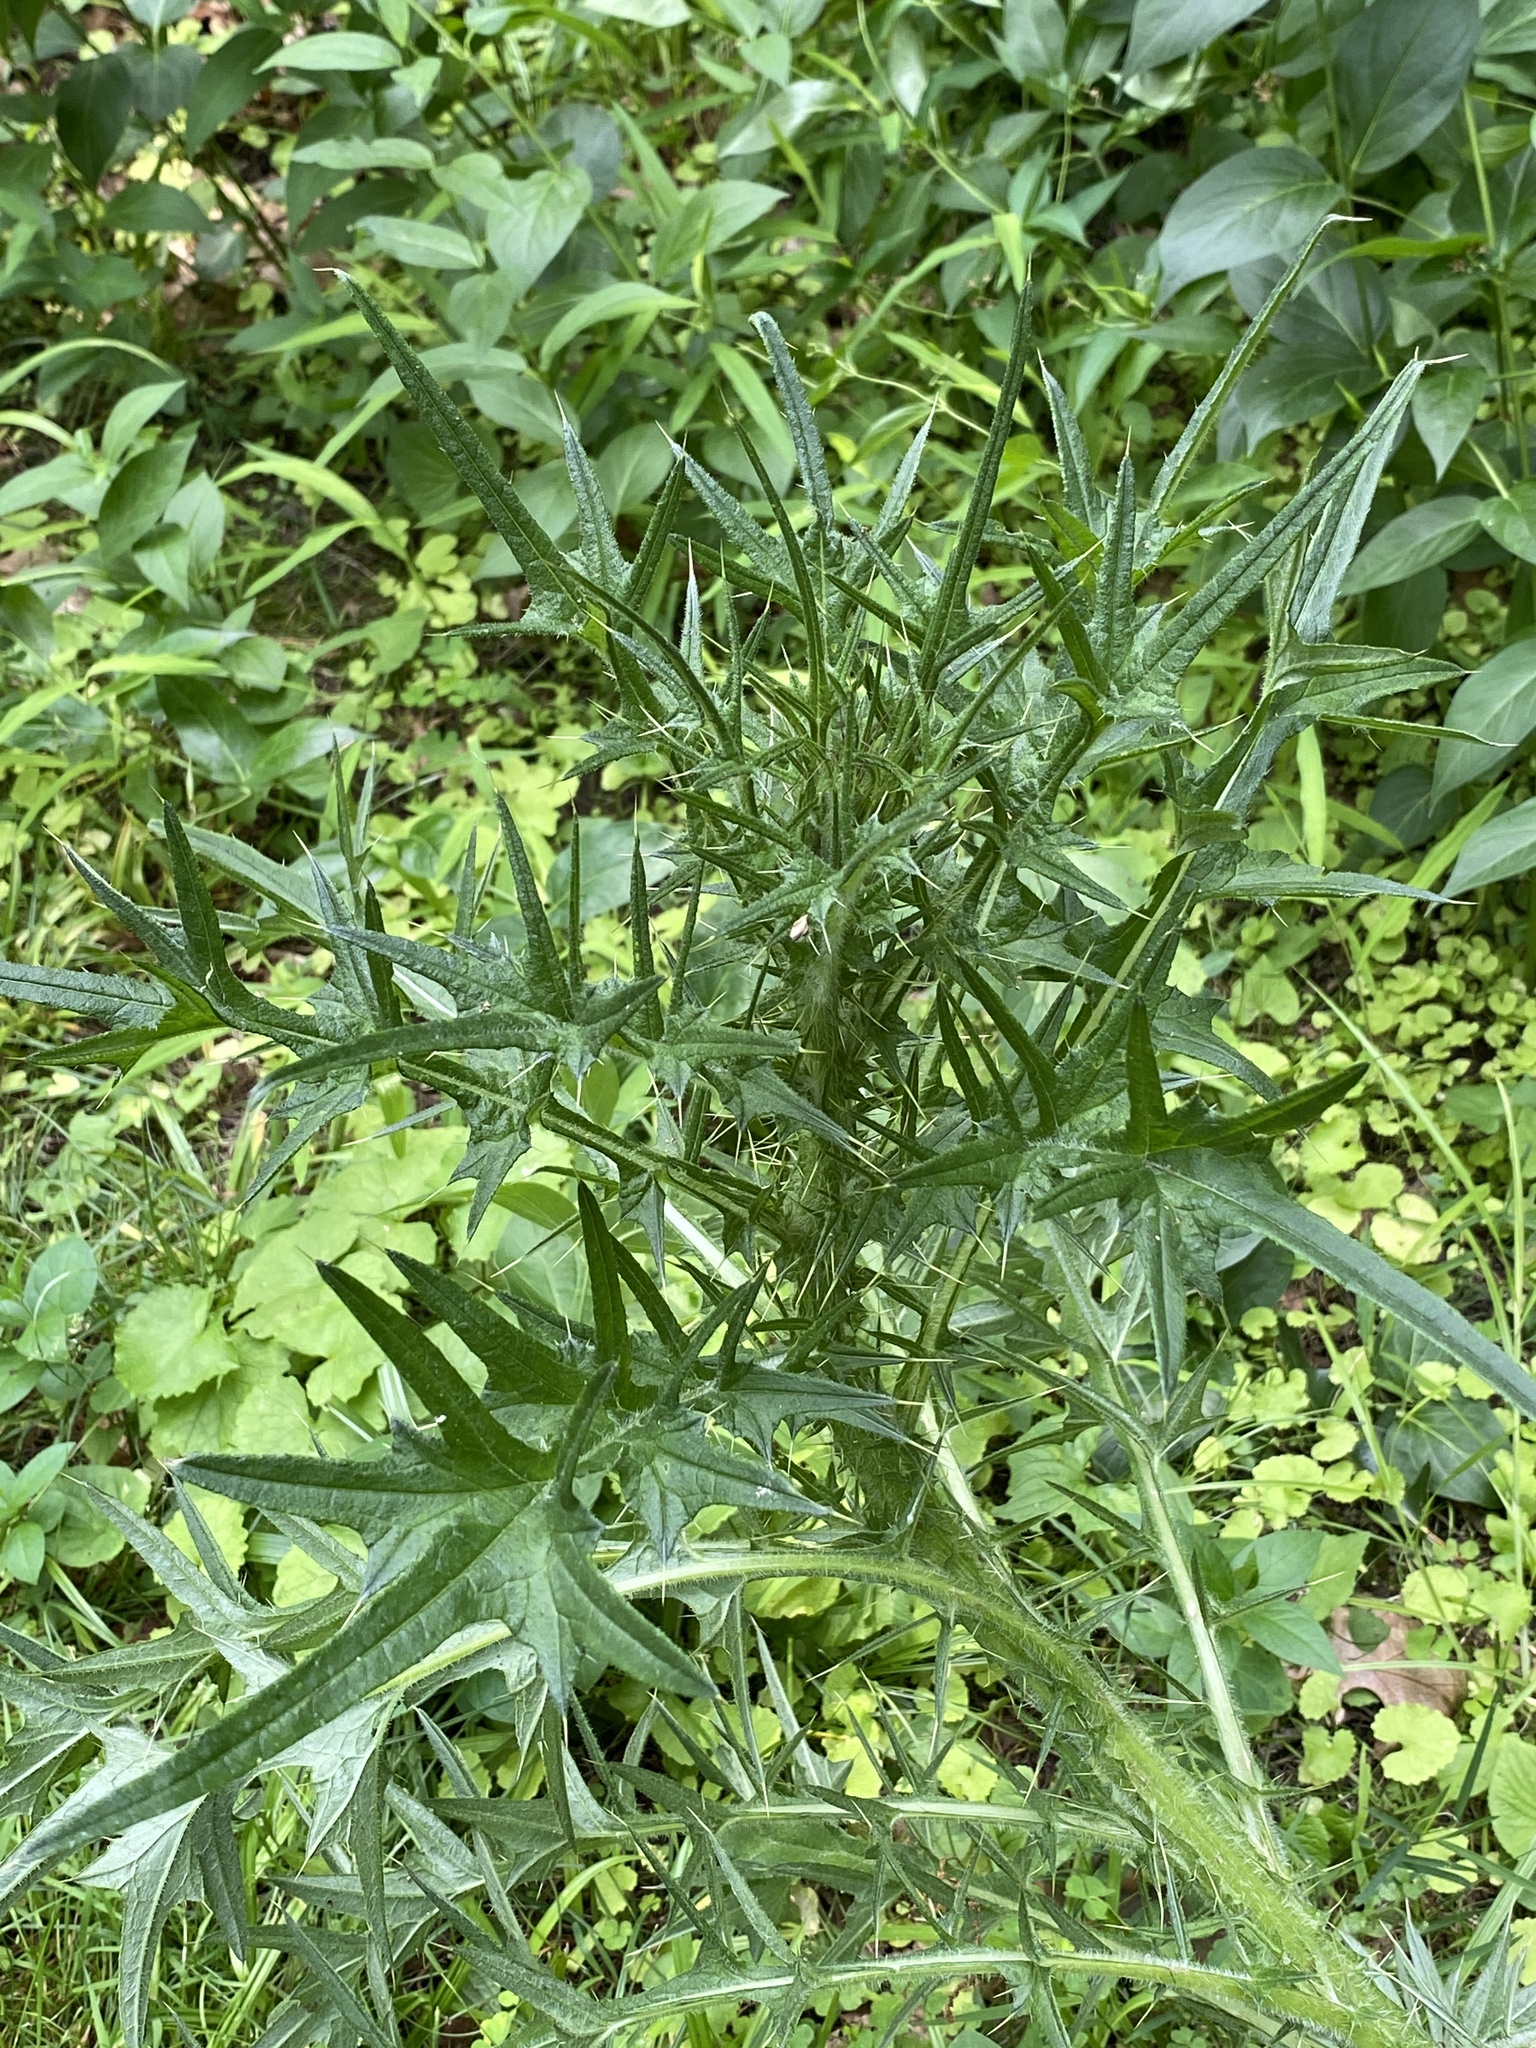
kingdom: Plantae
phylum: Tracheophyta
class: Magnoliopsida
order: Asterales
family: Asteraceae
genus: Cirsium
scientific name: Cirsium vulgare
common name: Bull thistle
